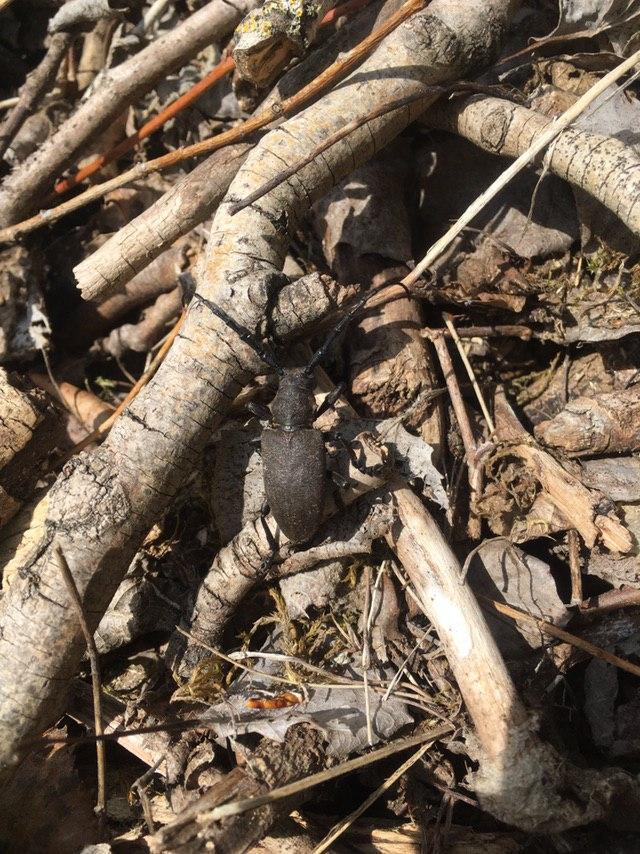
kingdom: Animalia
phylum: Arthropoda
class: Insecta
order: Coleoptera
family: Cerambycidae
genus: Lamia
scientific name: Lamia textor
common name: Weaver beetle
